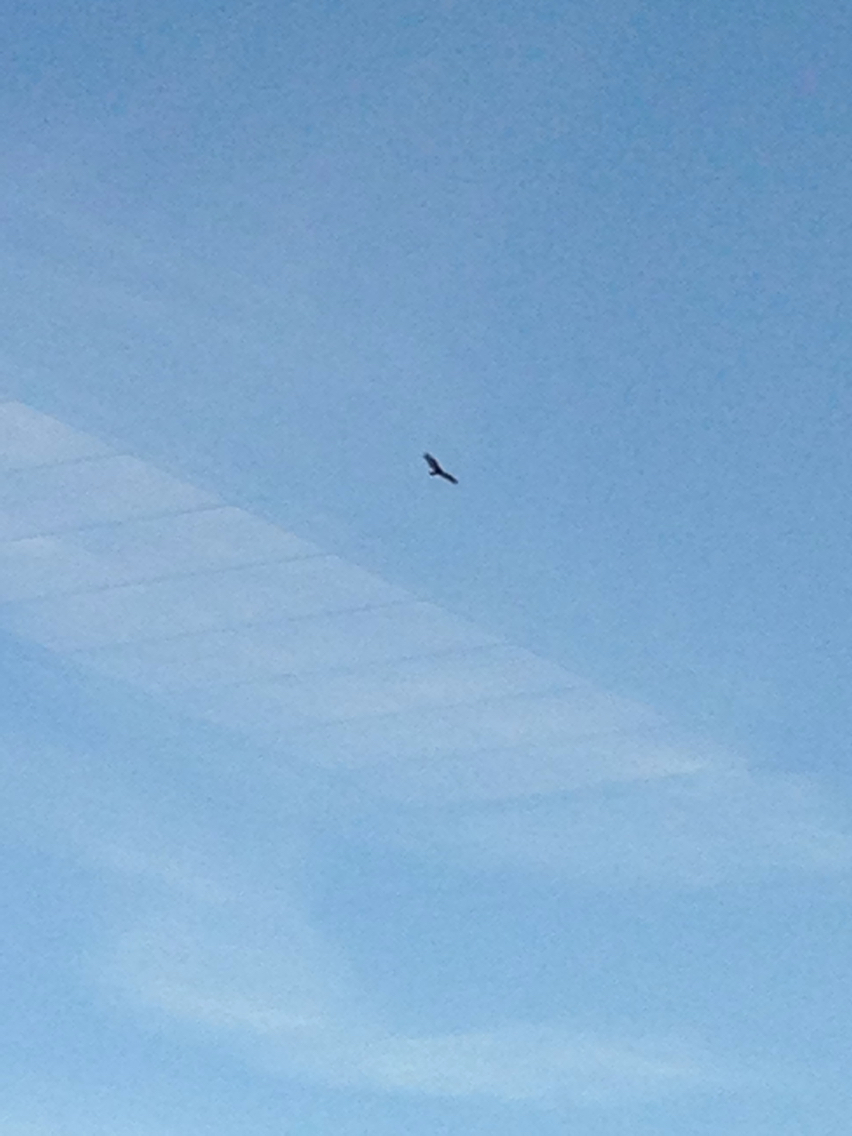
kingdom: Animalia
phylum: Chordata
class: Aves
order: Accipitriformes
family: Cathartidae
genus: Cathartes
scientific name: Cathartes aura
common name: Turkey vulture
